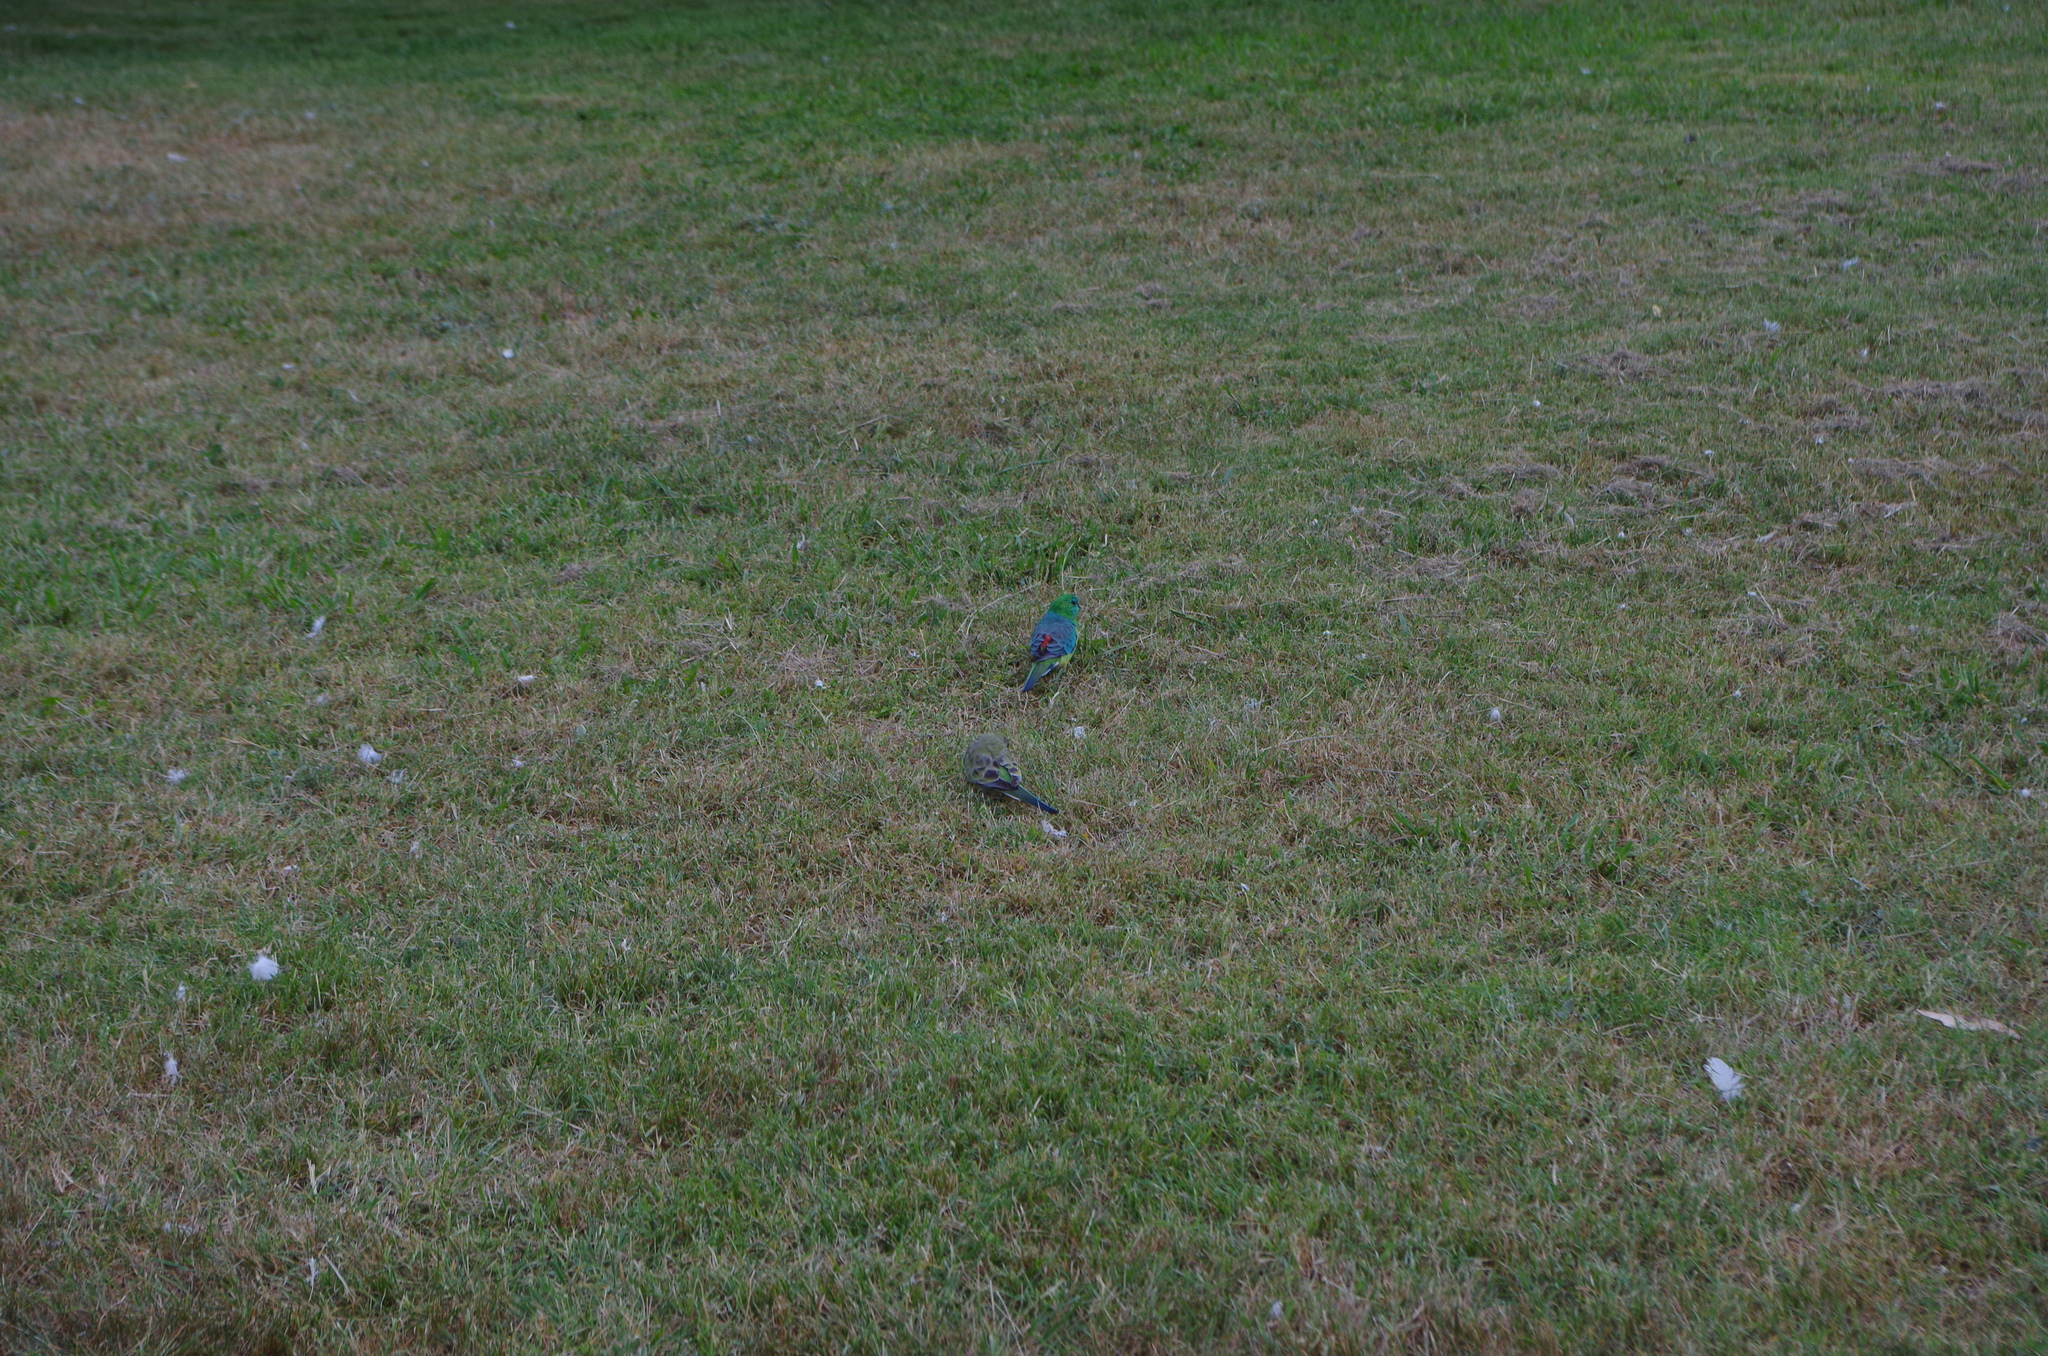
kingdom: Animalia
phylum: Chordata
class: Aves
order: Psittaciformes
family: Psittacidae
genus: Psephotus
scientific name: Psephotus haematonotus
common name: Red-rumped parrot
